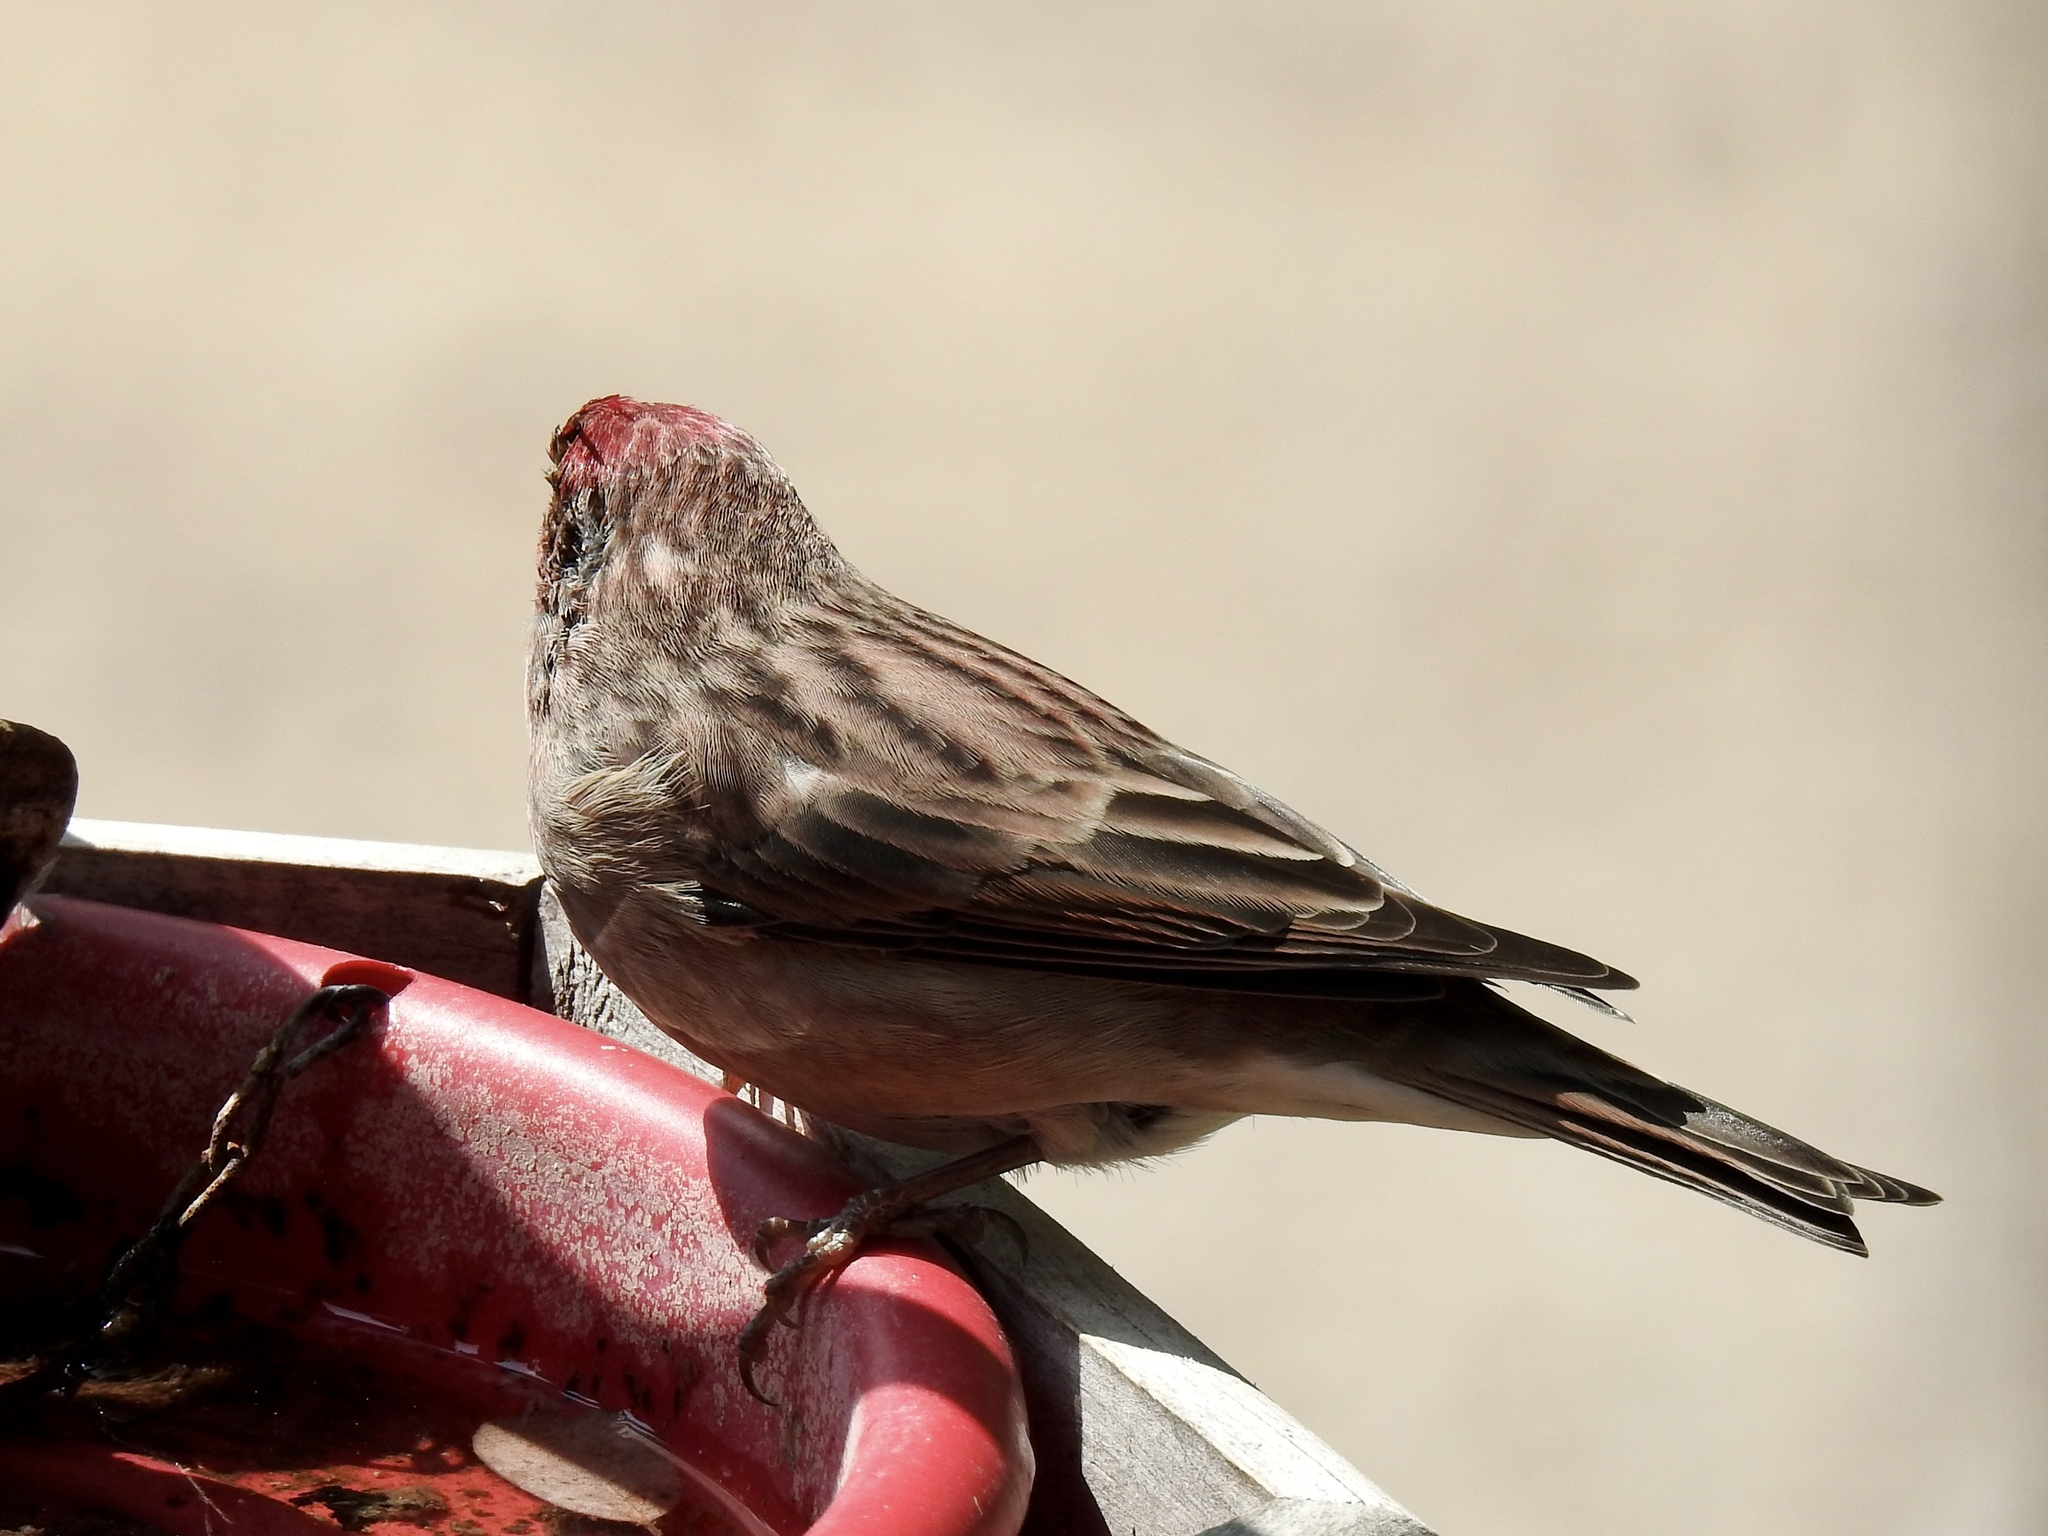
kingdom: Animalia
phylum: Chordata
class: Aves
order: Passeriformes
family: Fringillidae
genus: Haemorhous
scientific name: Haemorhous cassinii
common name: Cassin's finch
